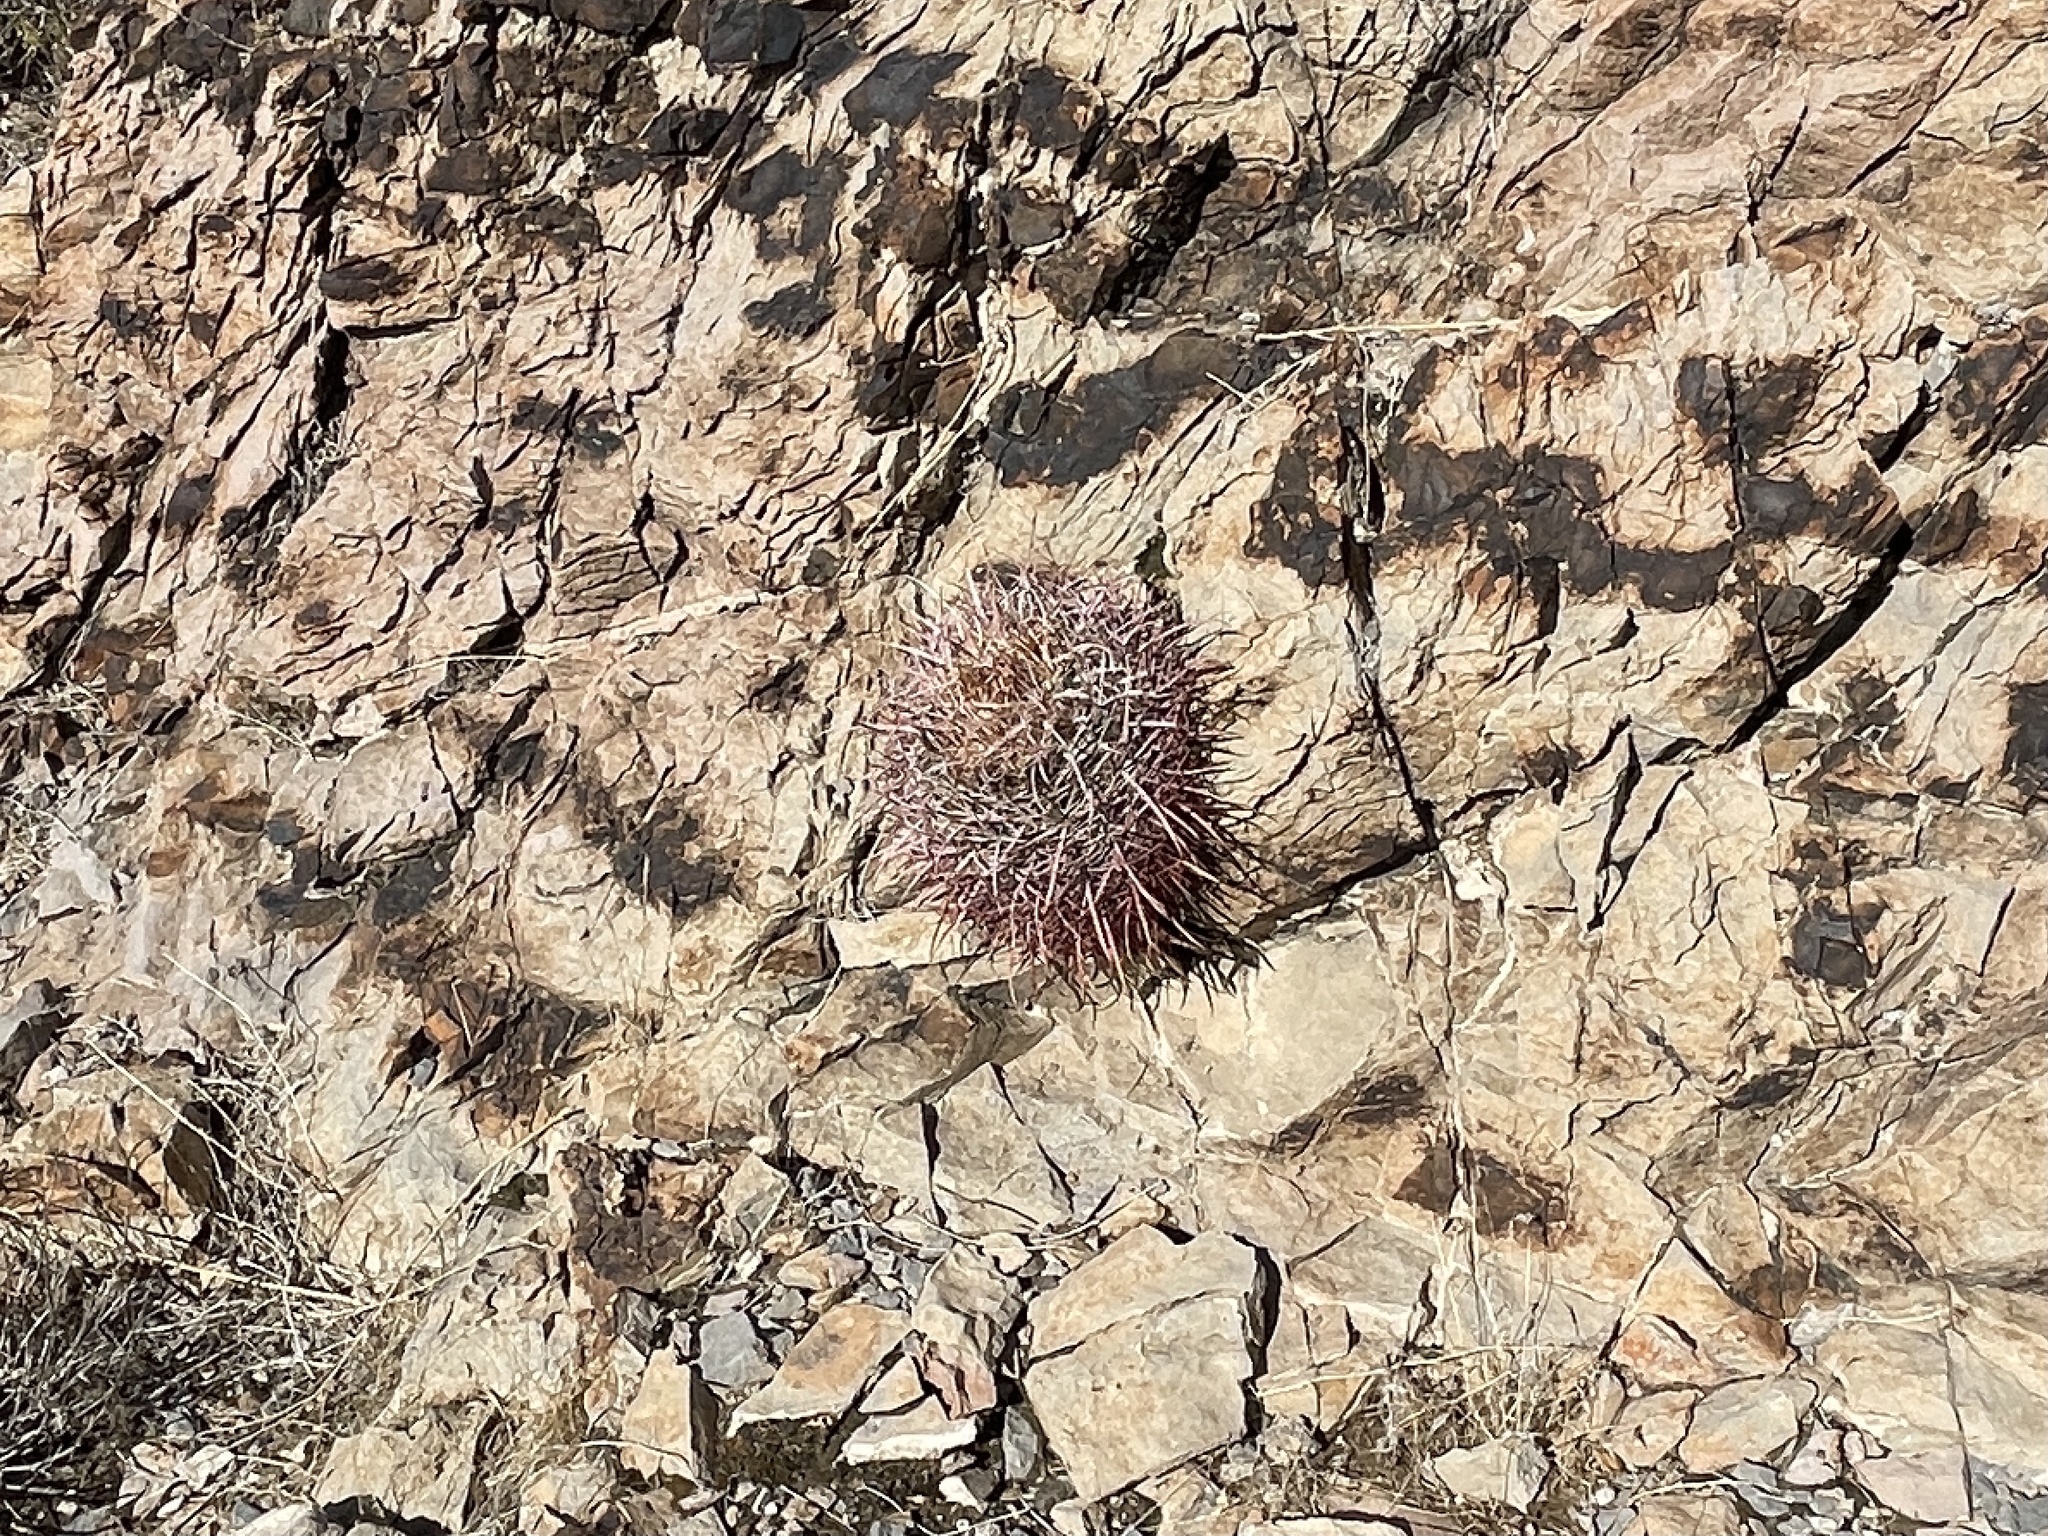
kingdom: Plantae
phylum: Tracheophyta
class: Magnoliopsida
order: Caryophyllales
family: Cactaceae
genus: Echinocactus
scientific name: Echinocactus polycephalus
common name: Cottontop cactus
